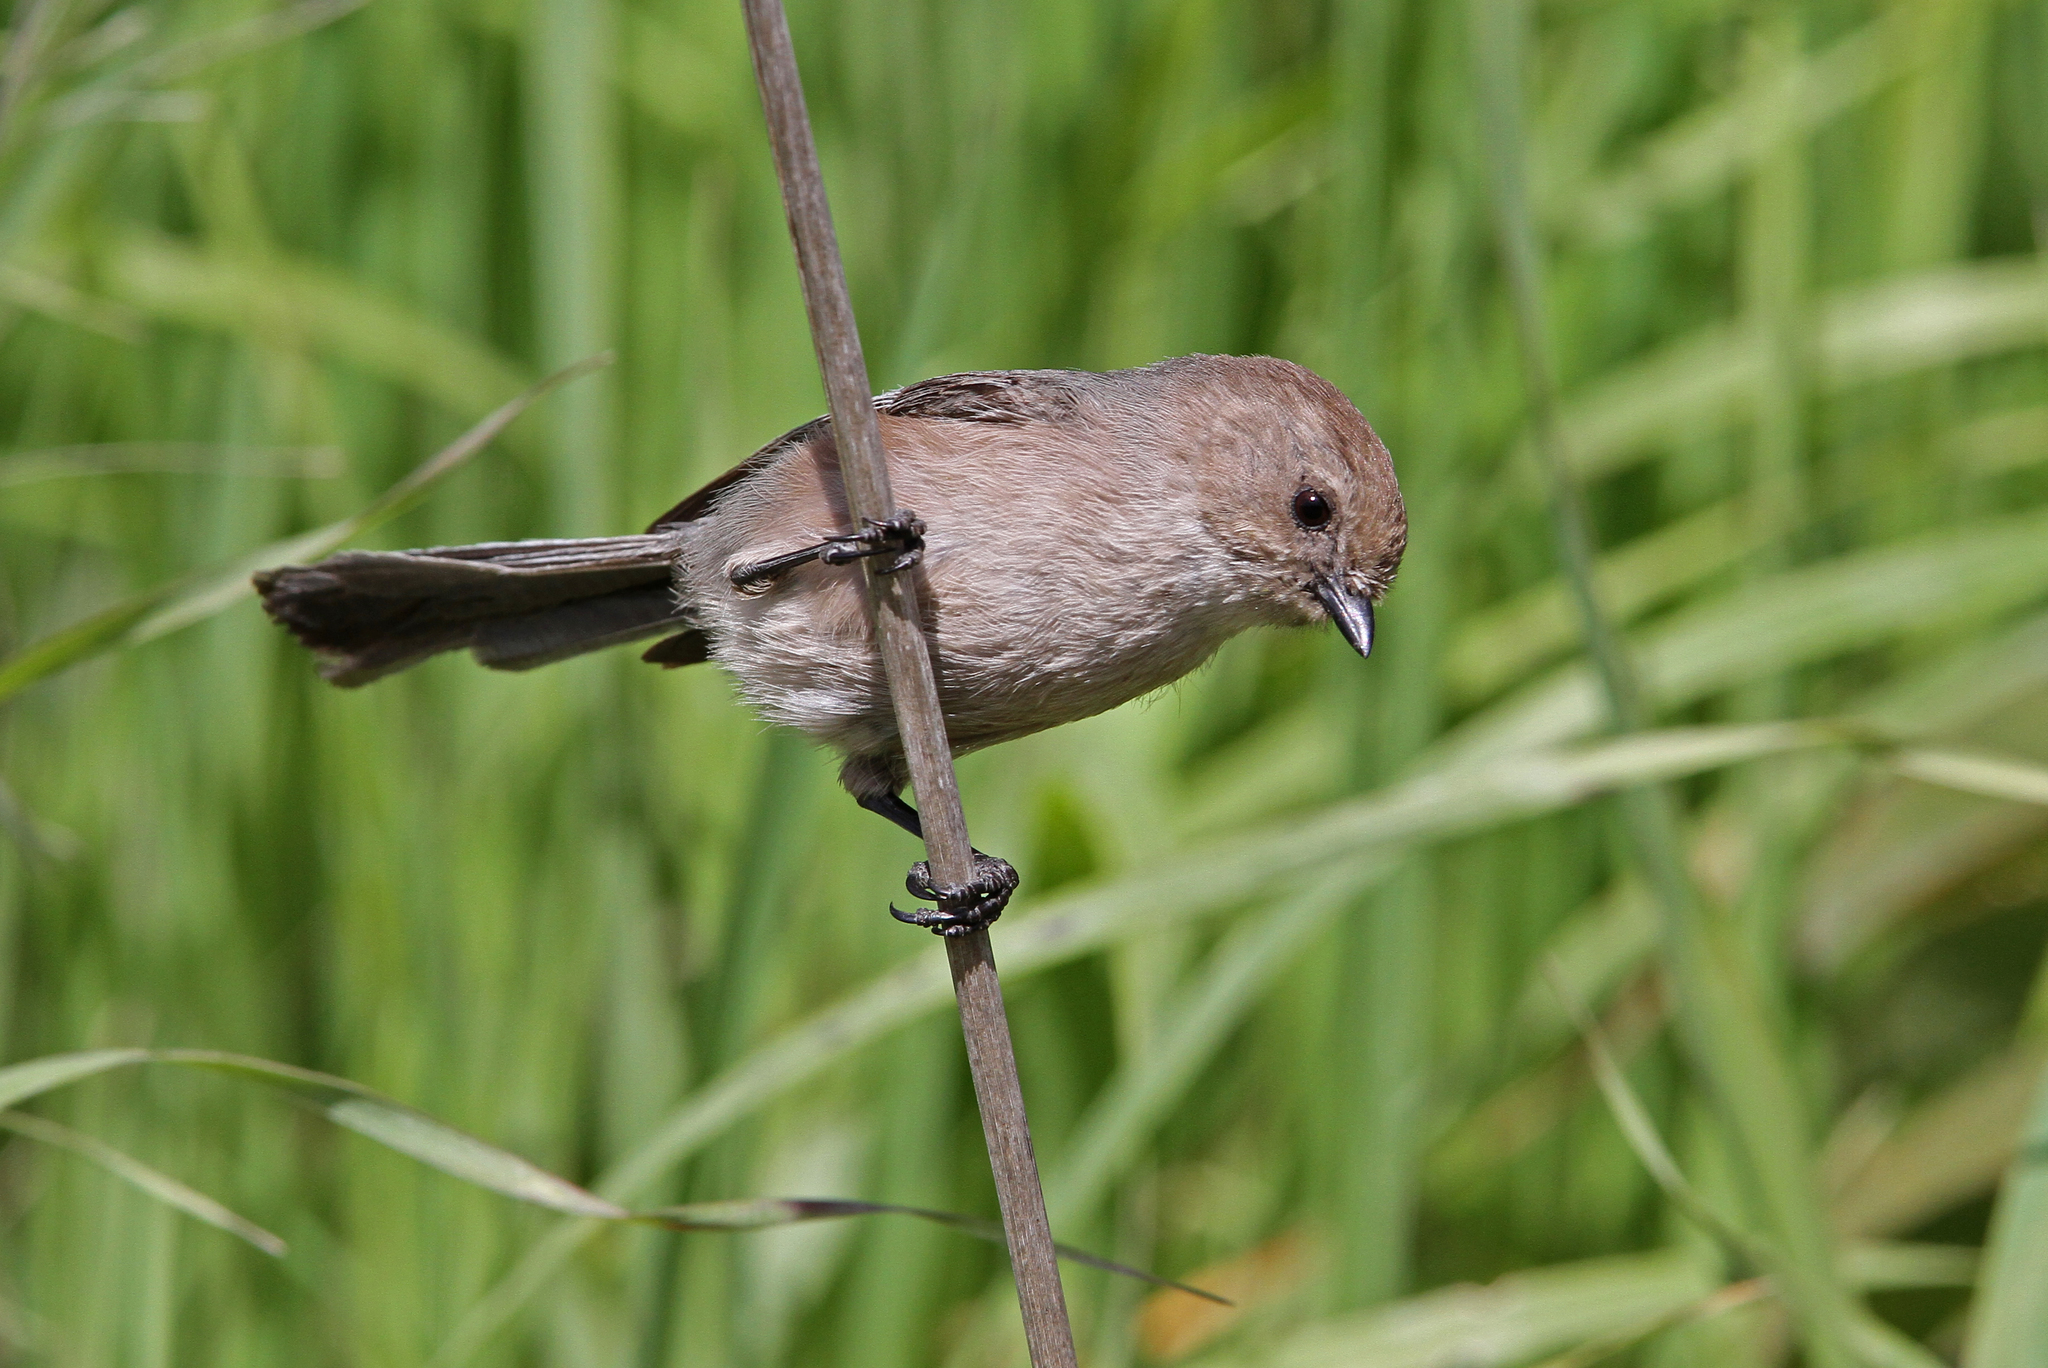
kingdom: Animalia
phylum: Chordata
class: Aves
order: Passeriformes
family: Aegithalidae
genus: Psaltriparus
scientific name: Psaltriparus minimus
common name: American bushtit
